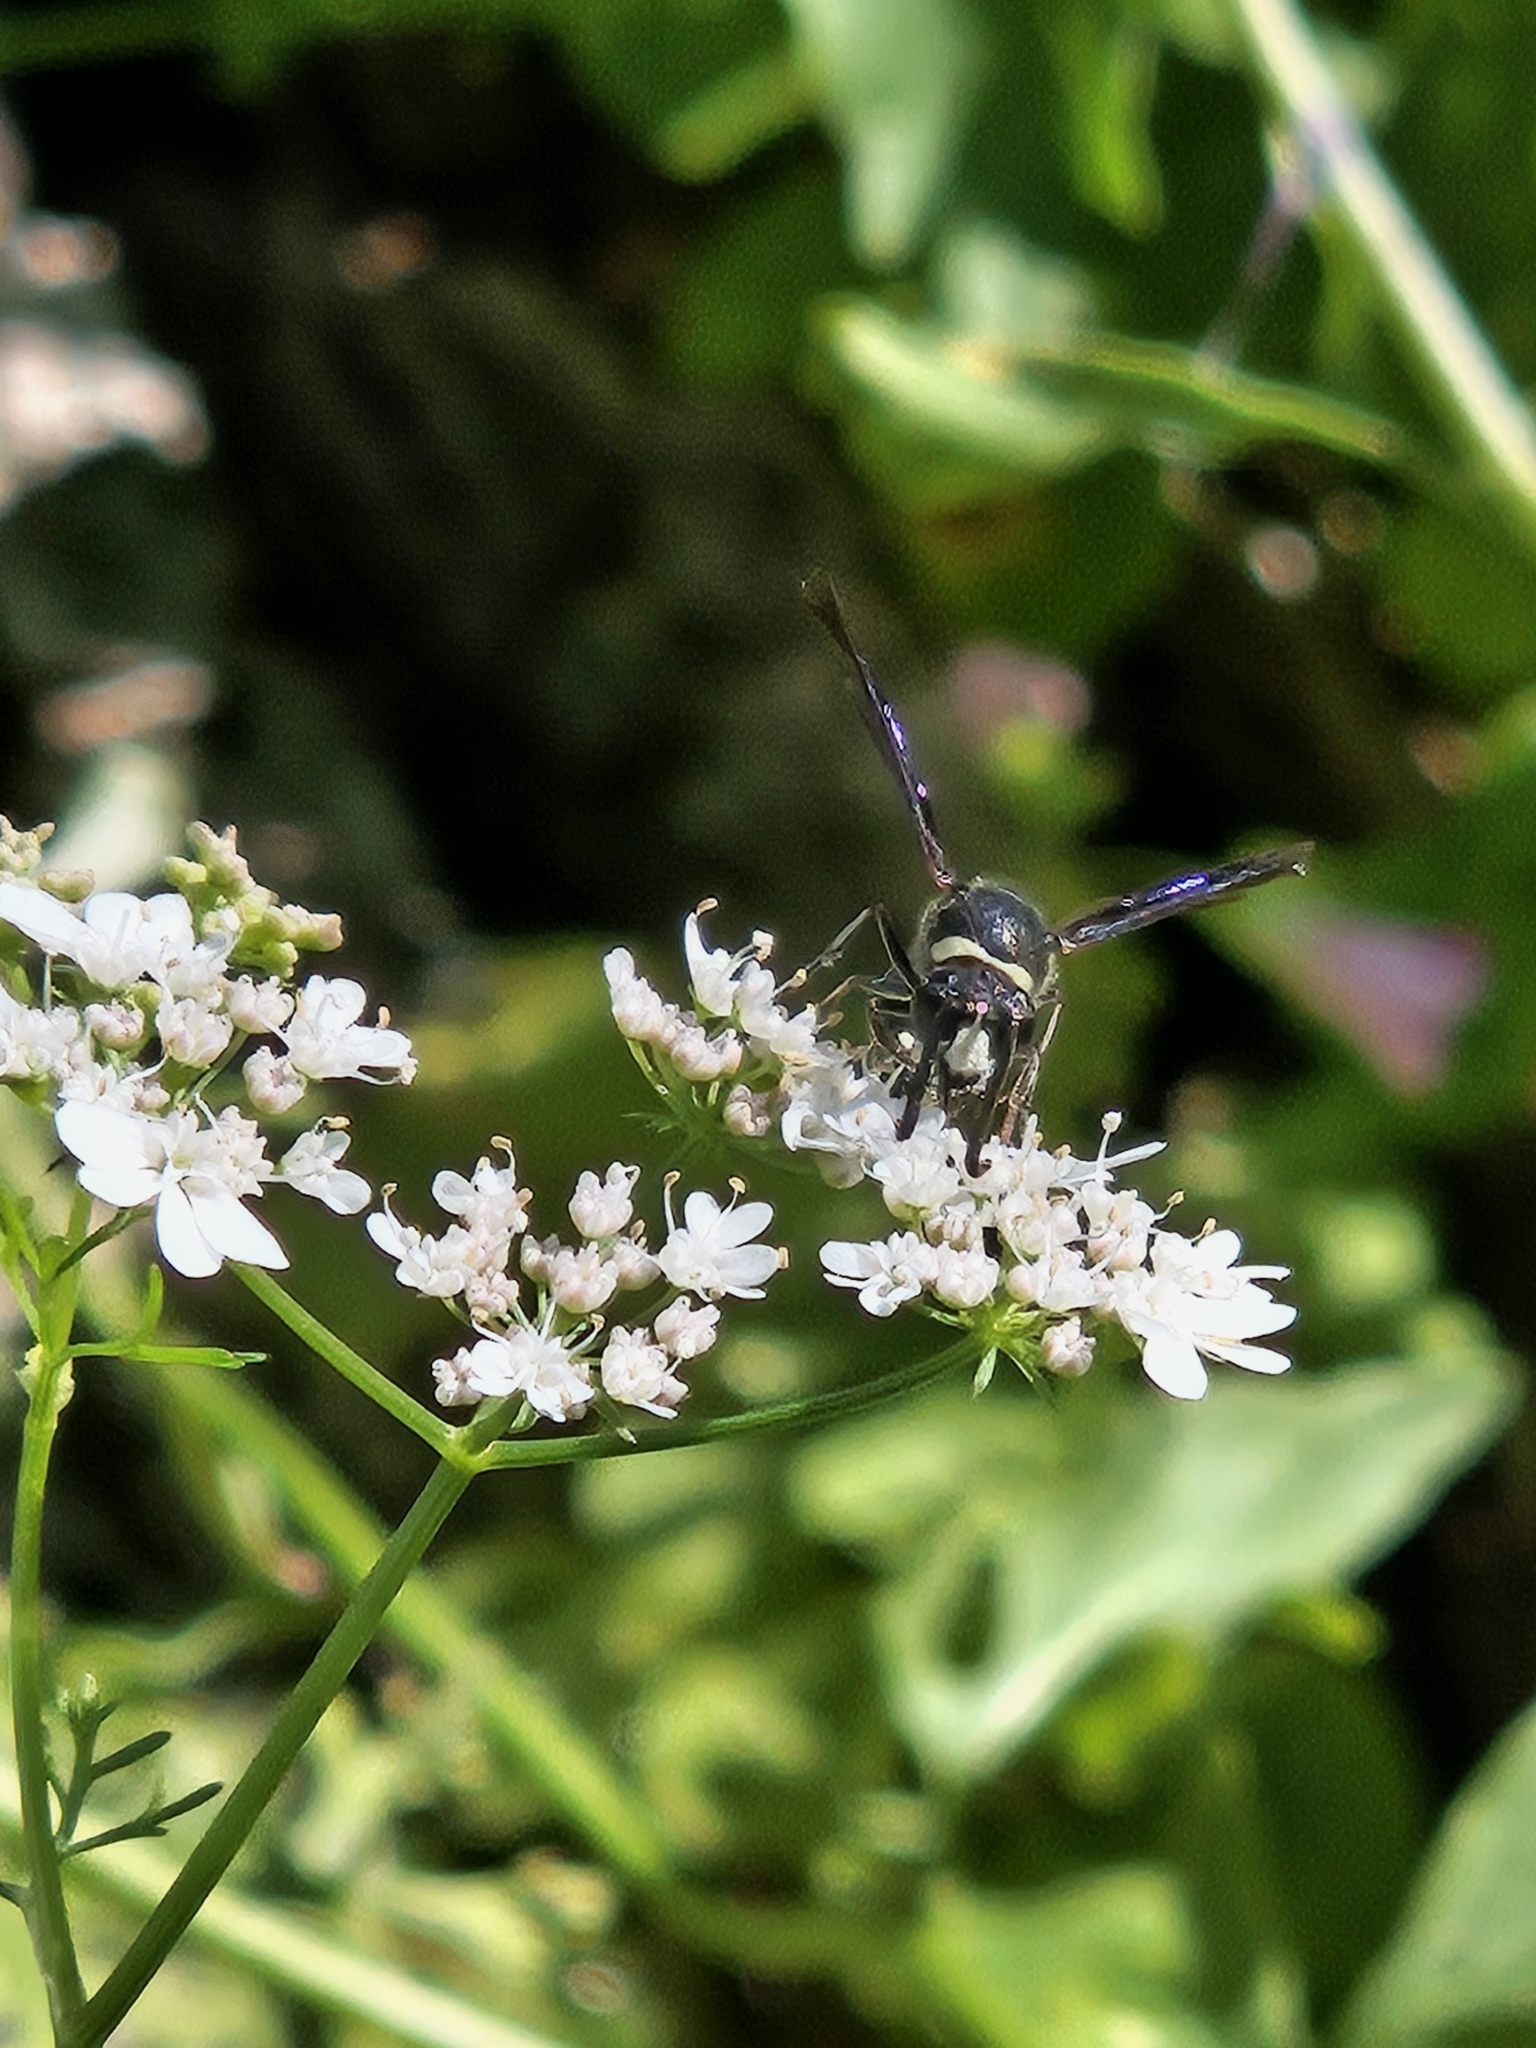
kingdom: Animalia
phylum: Arthropoda
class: Insecta
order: Hymenoptera
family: Vespidae
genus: Eumenes
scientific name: Eumenes fraternus
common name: Fraternal potter wasp
